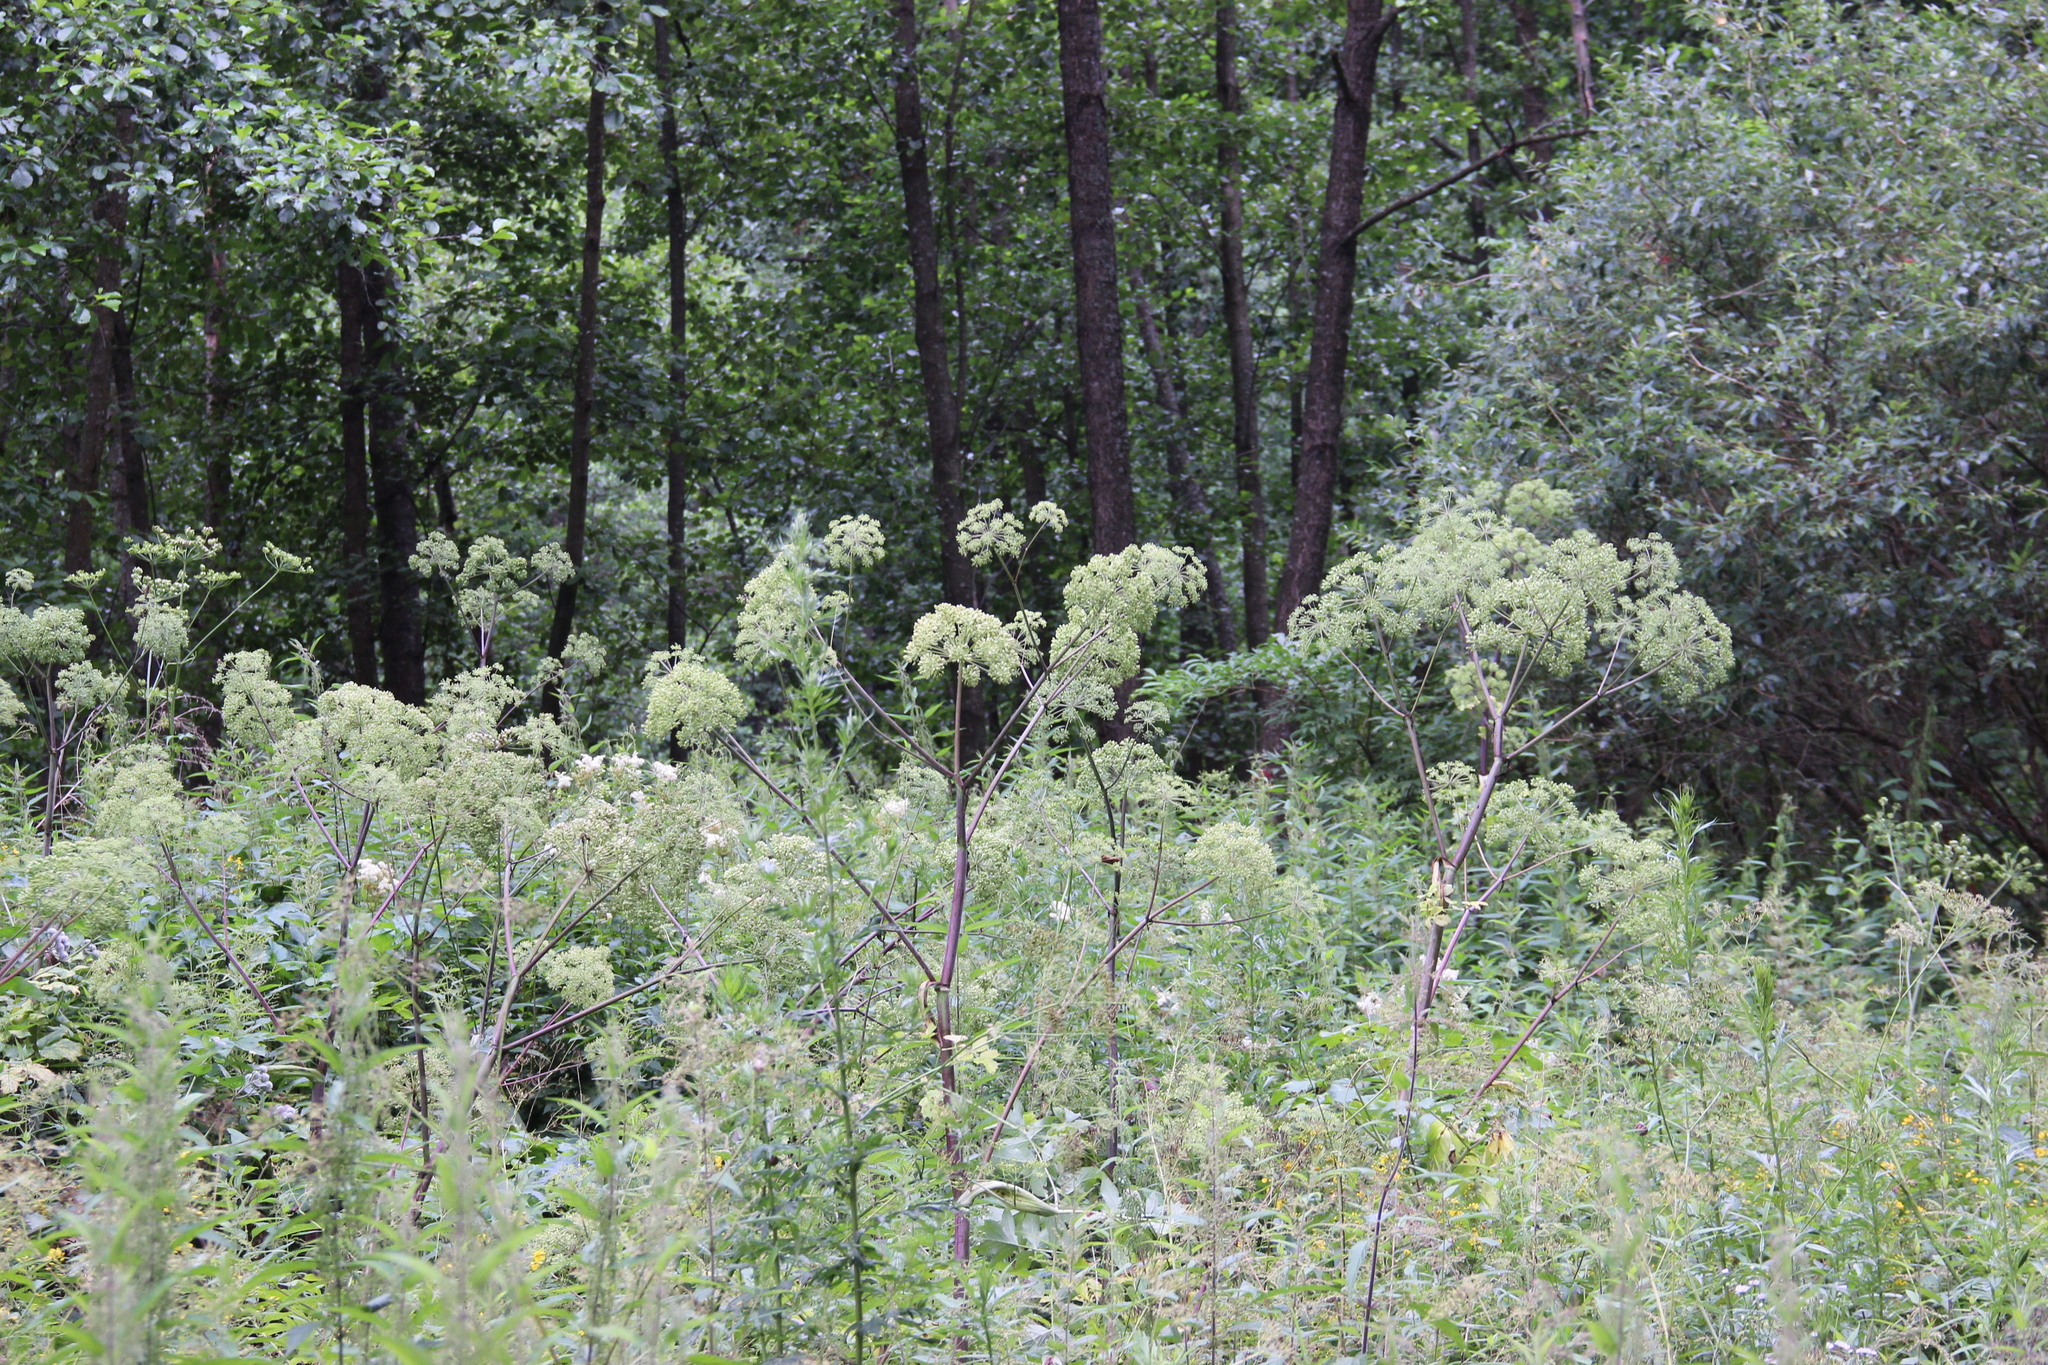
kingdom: Plantae
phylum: Tracheophyta
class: Magnoliopsida
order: Apiales
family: Apiaceae
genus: Angelica
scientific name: Angelica archangelica
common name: Garden angelica
